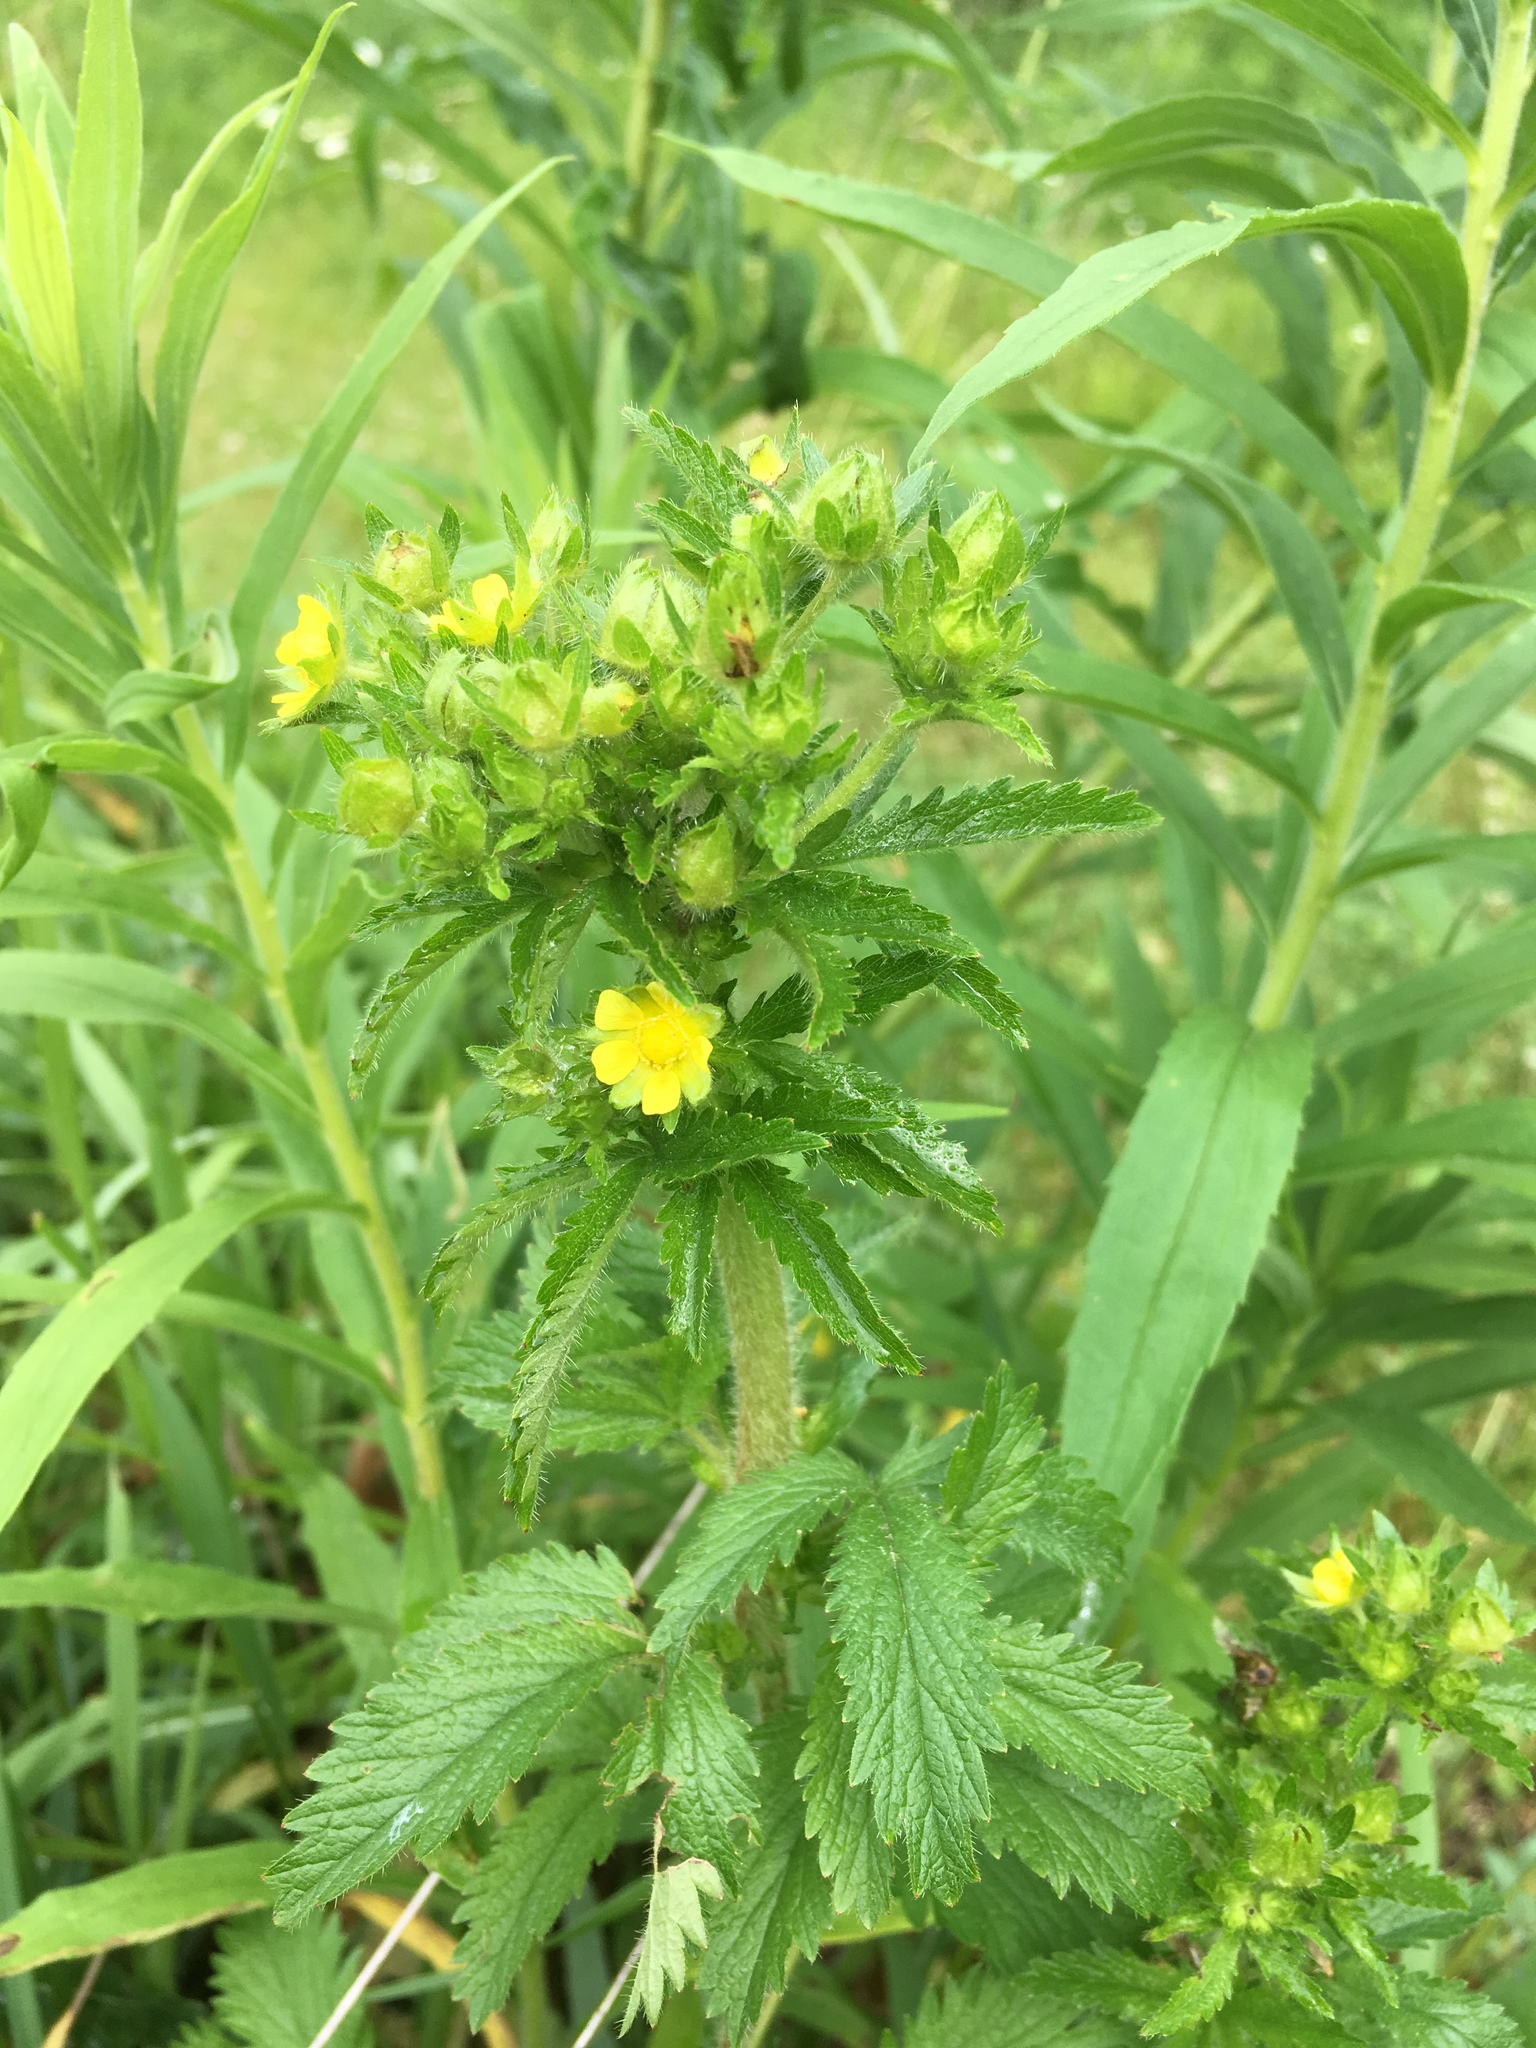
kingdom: Plantae
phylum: Tracheophyta
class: Magnoliopsida
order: Rosales
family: Rosaceae
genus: Potentilla
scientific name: Potentilla norvegica
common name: Ternate-leaved cinquefoil
